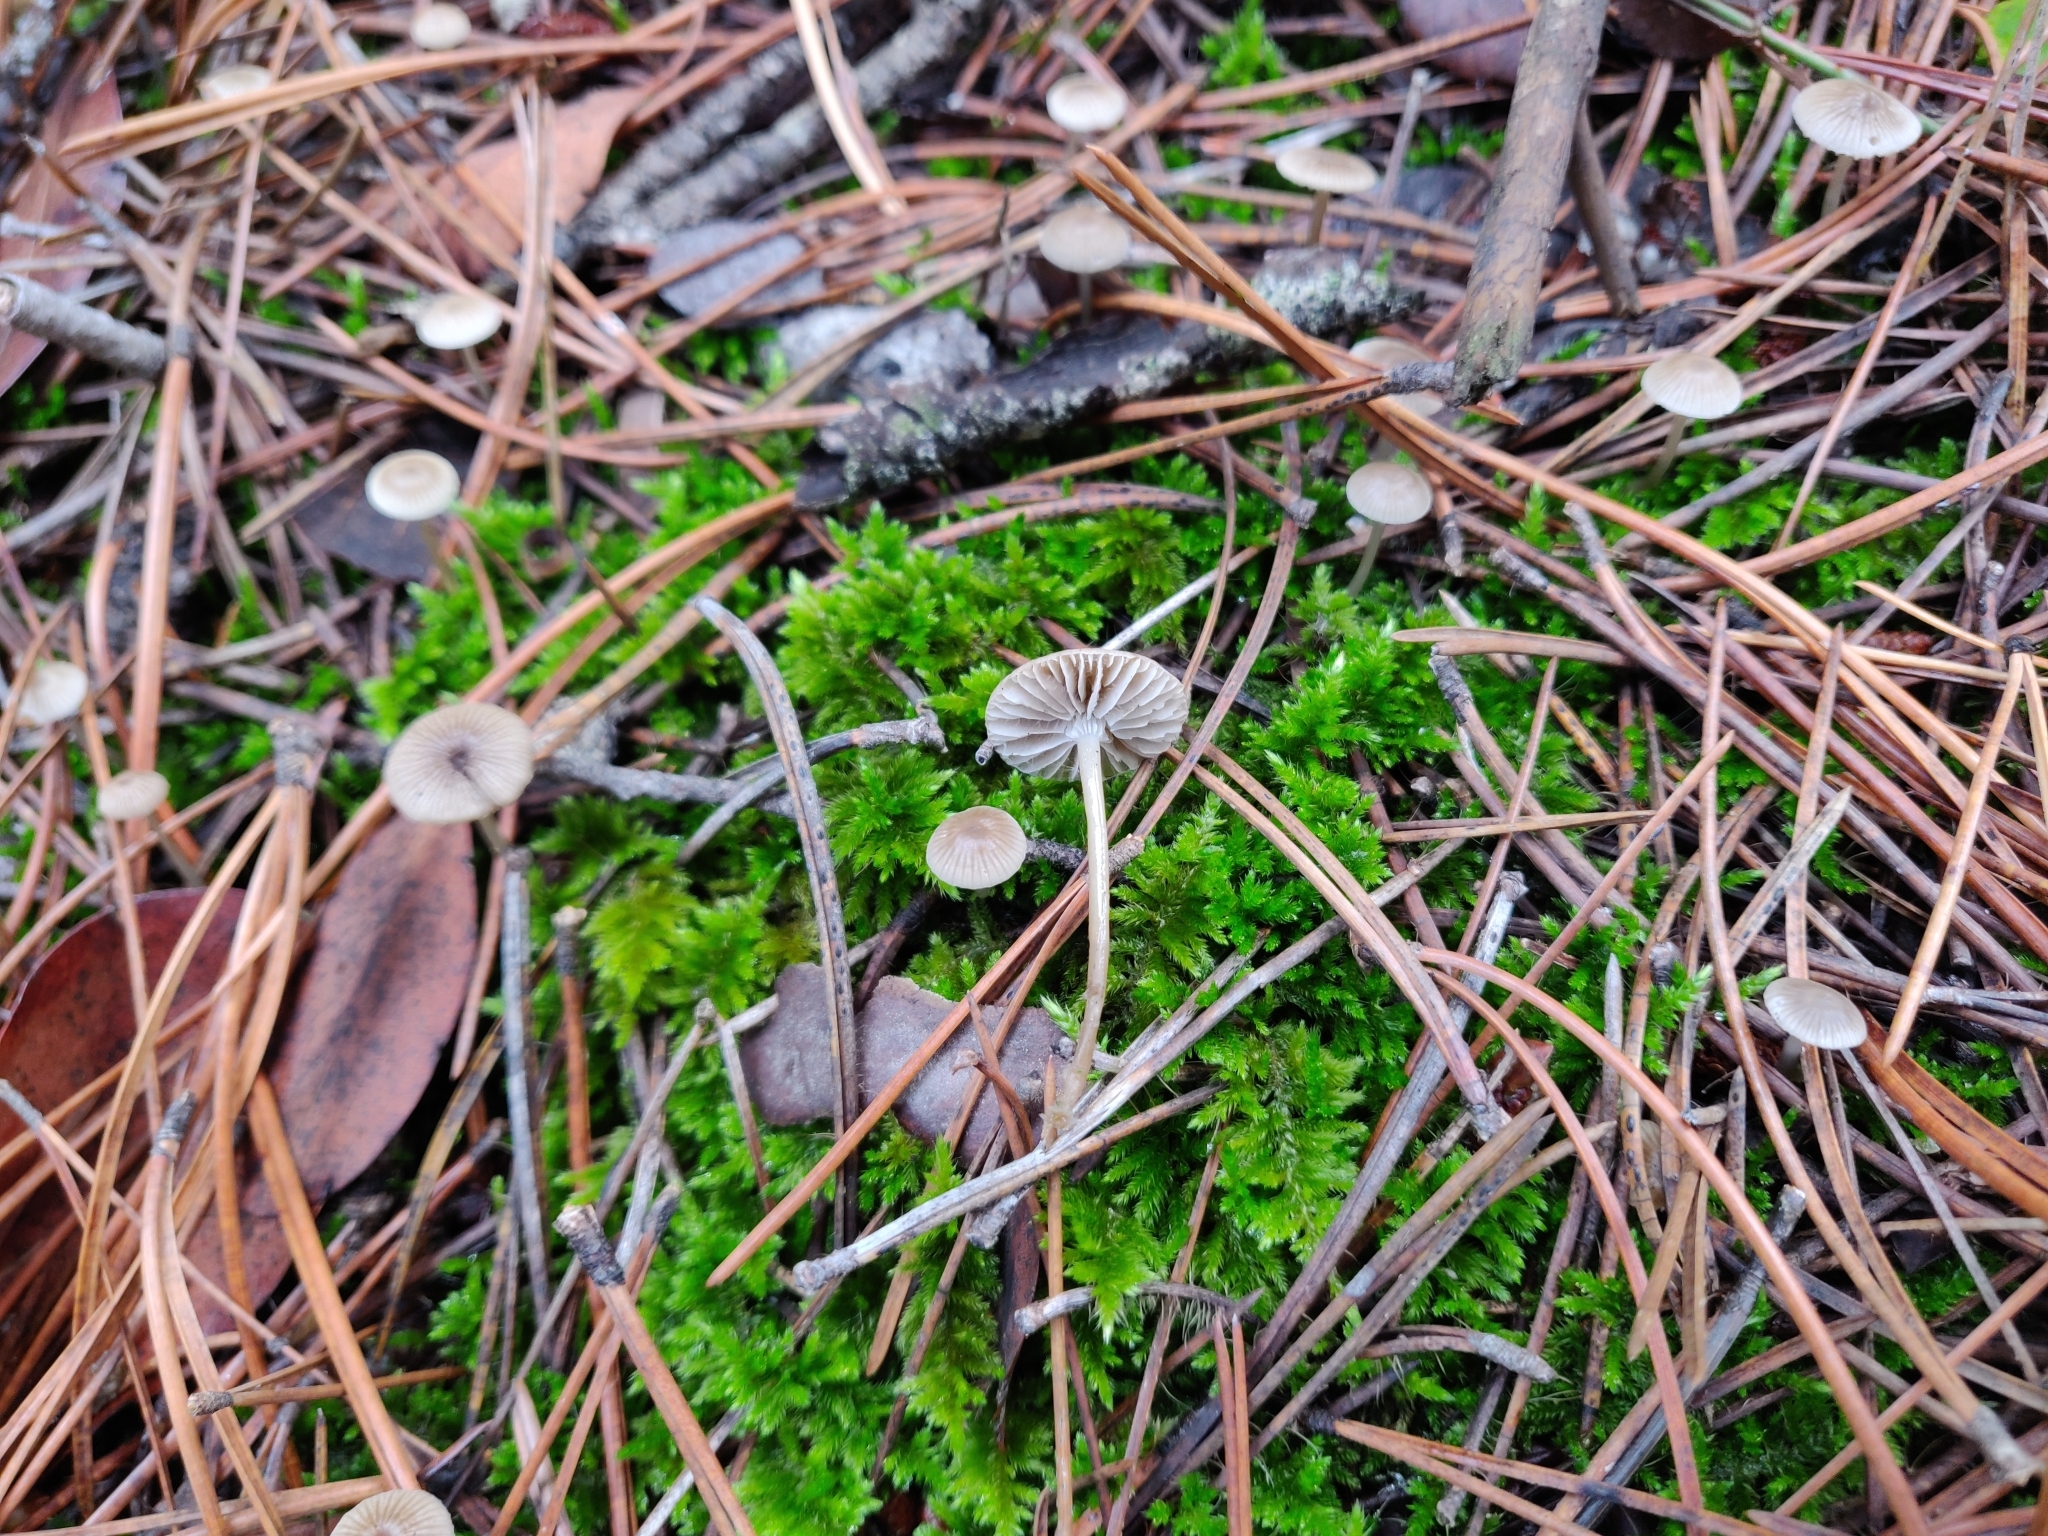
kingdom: Fungi
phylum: Basidiomycota
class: Agaricomycetes
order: Agaricales
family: Mycenaceae
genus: Mycena
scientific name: Mycena clavicularis
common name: Needle bonnet
